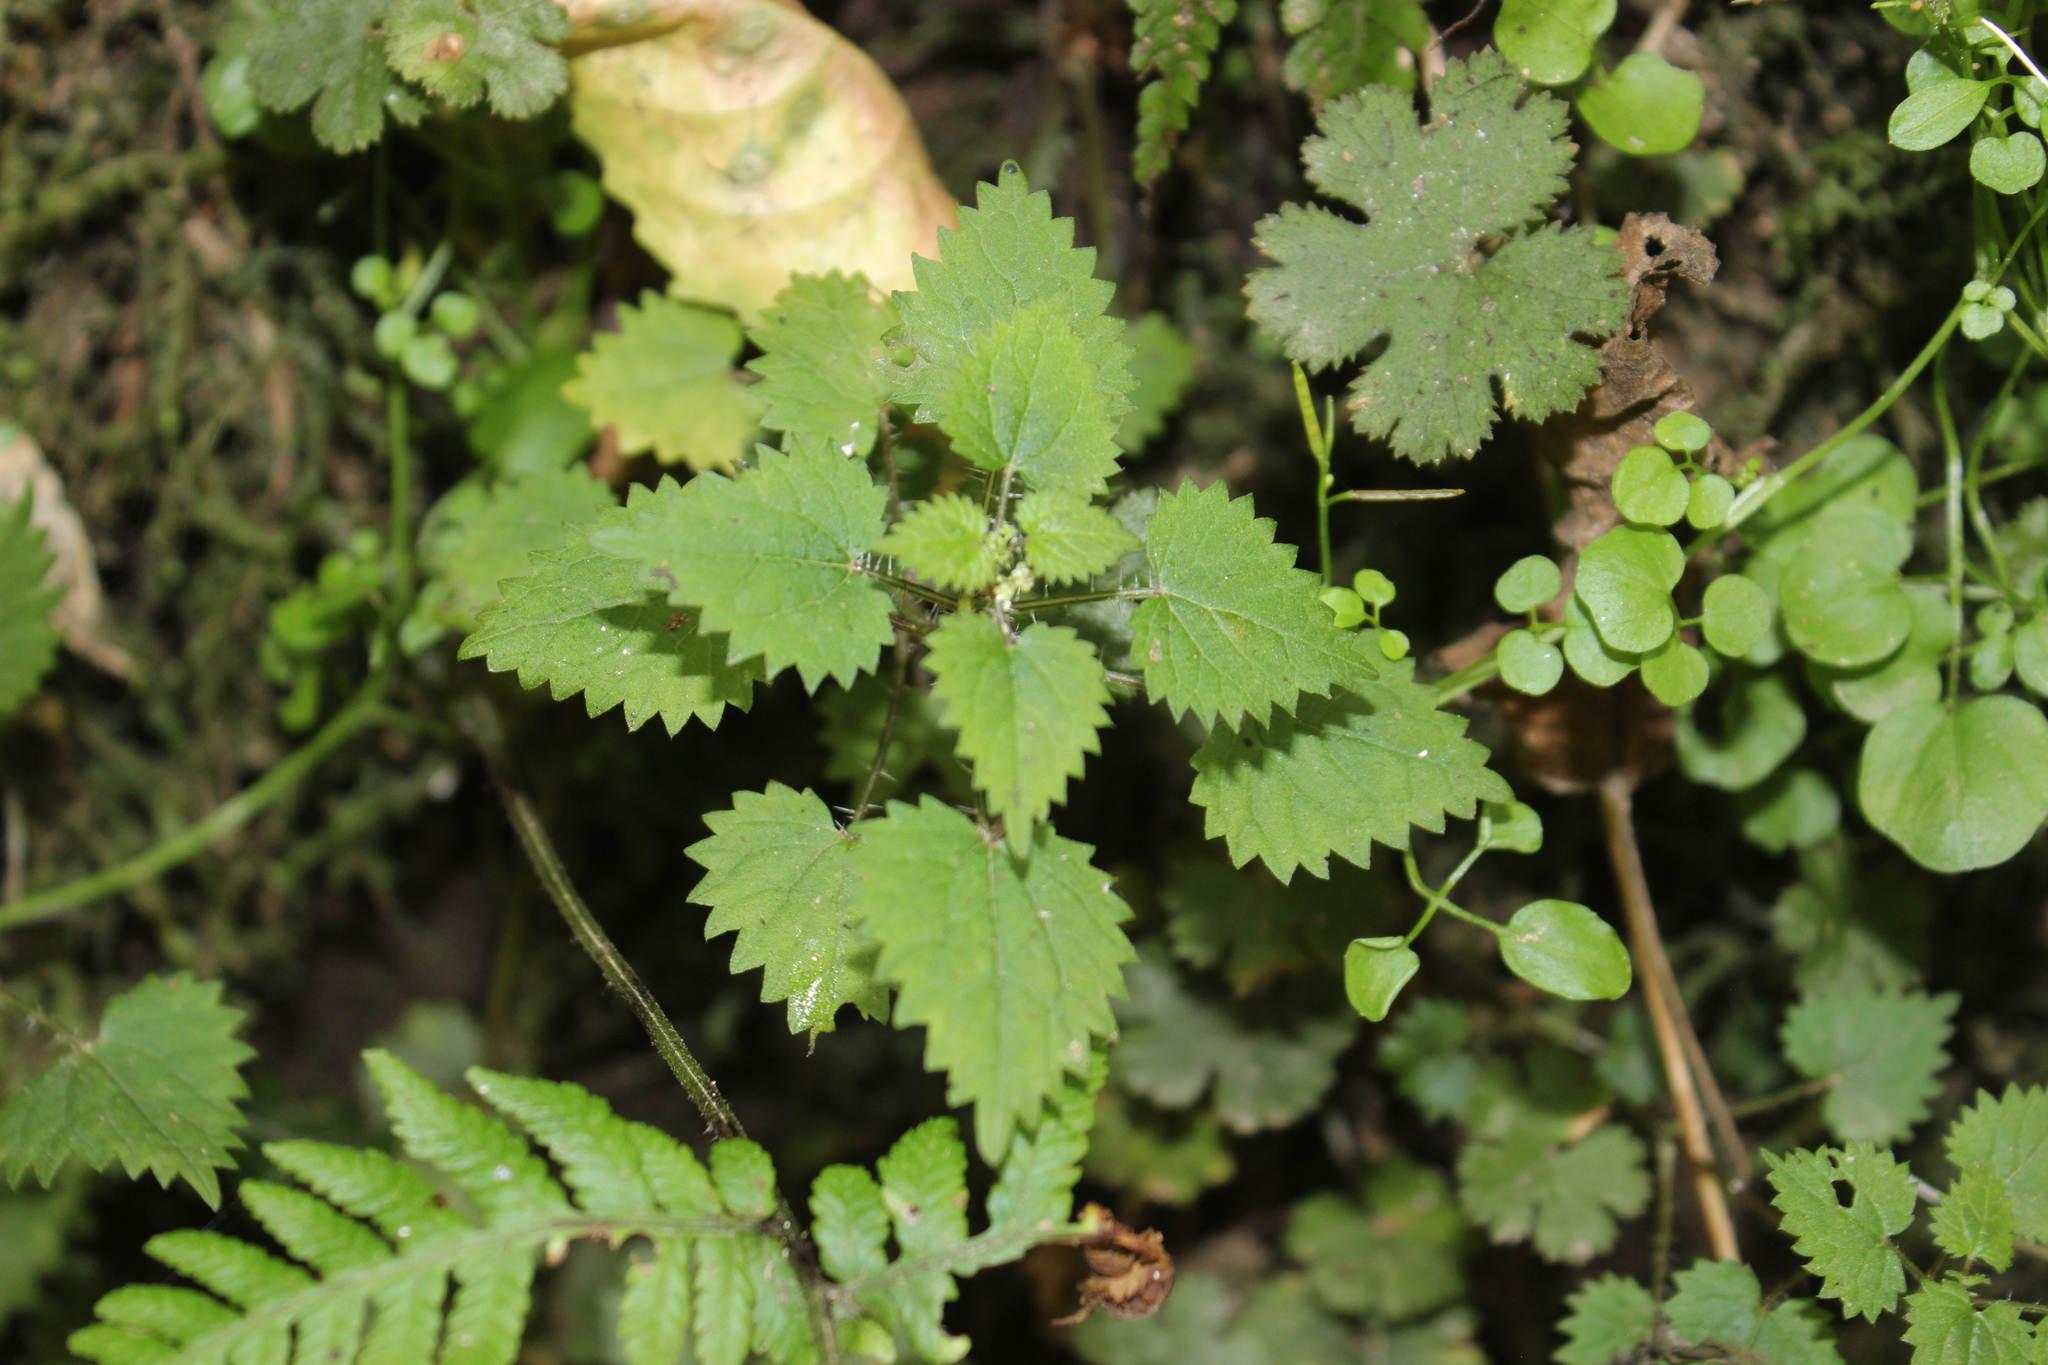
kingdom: Plantae
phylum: Tracheophyta
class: Magnoliopsida
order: Rosales
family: Urticaceae
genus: Urtica
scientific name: Urtica sykesii
